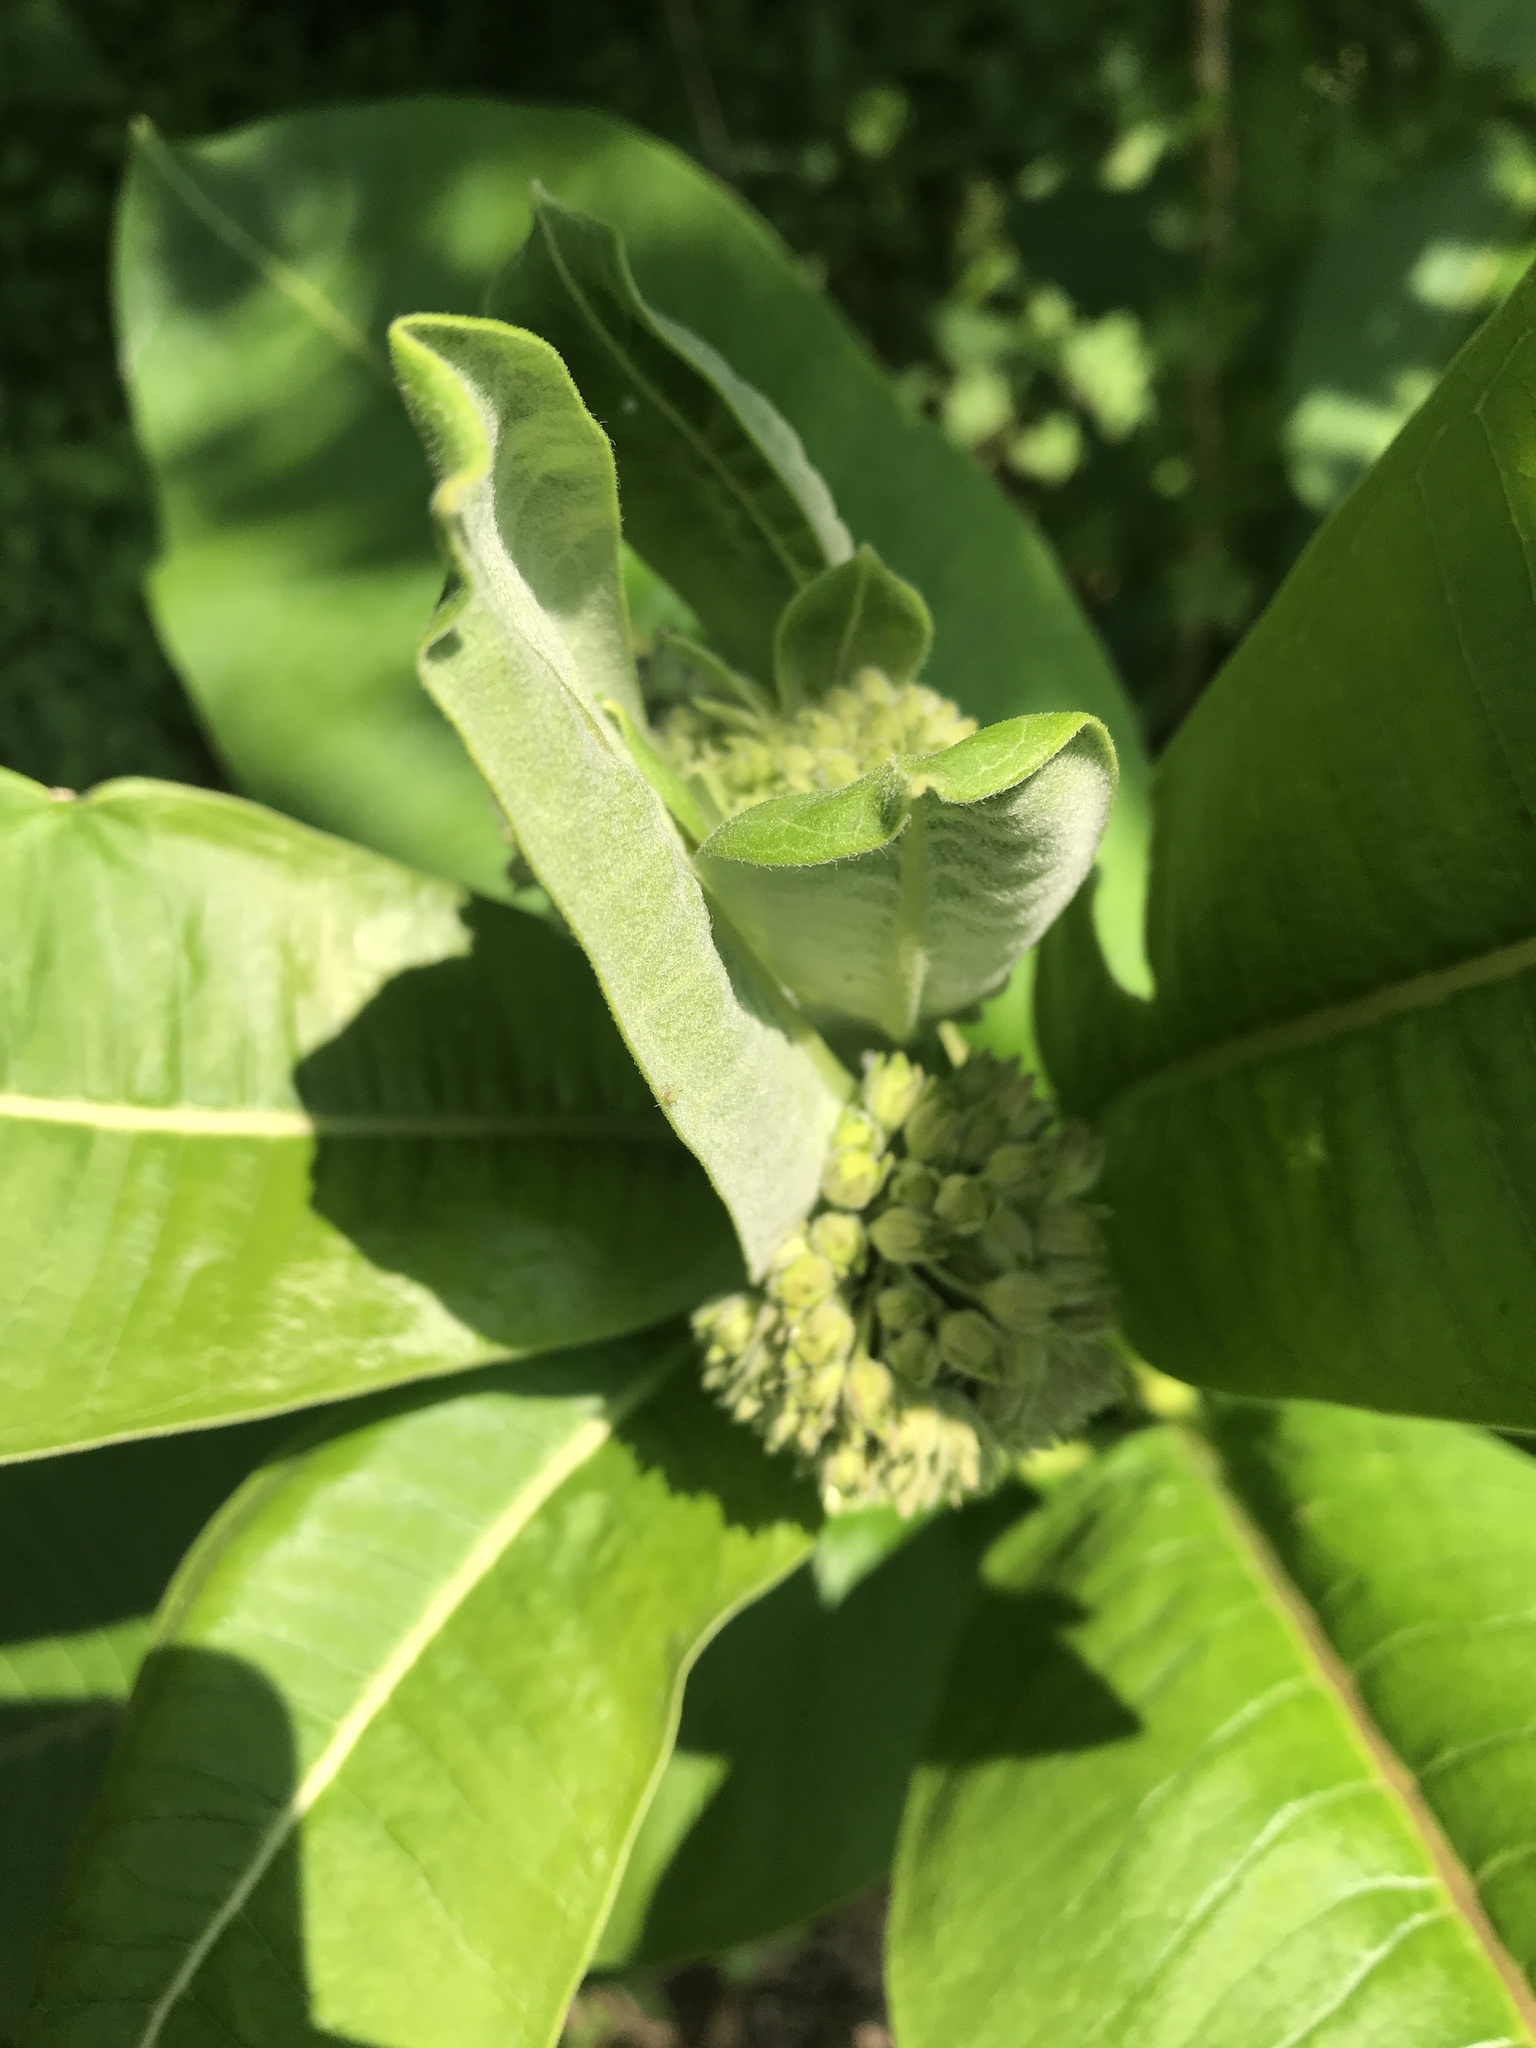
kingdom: Plantae
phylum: Tracheophyta
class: Magnoliopsida
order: Gentianales
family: Apocynaceae
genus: Asclepias
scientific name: Asclepias syriaca
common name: Common milkweed
